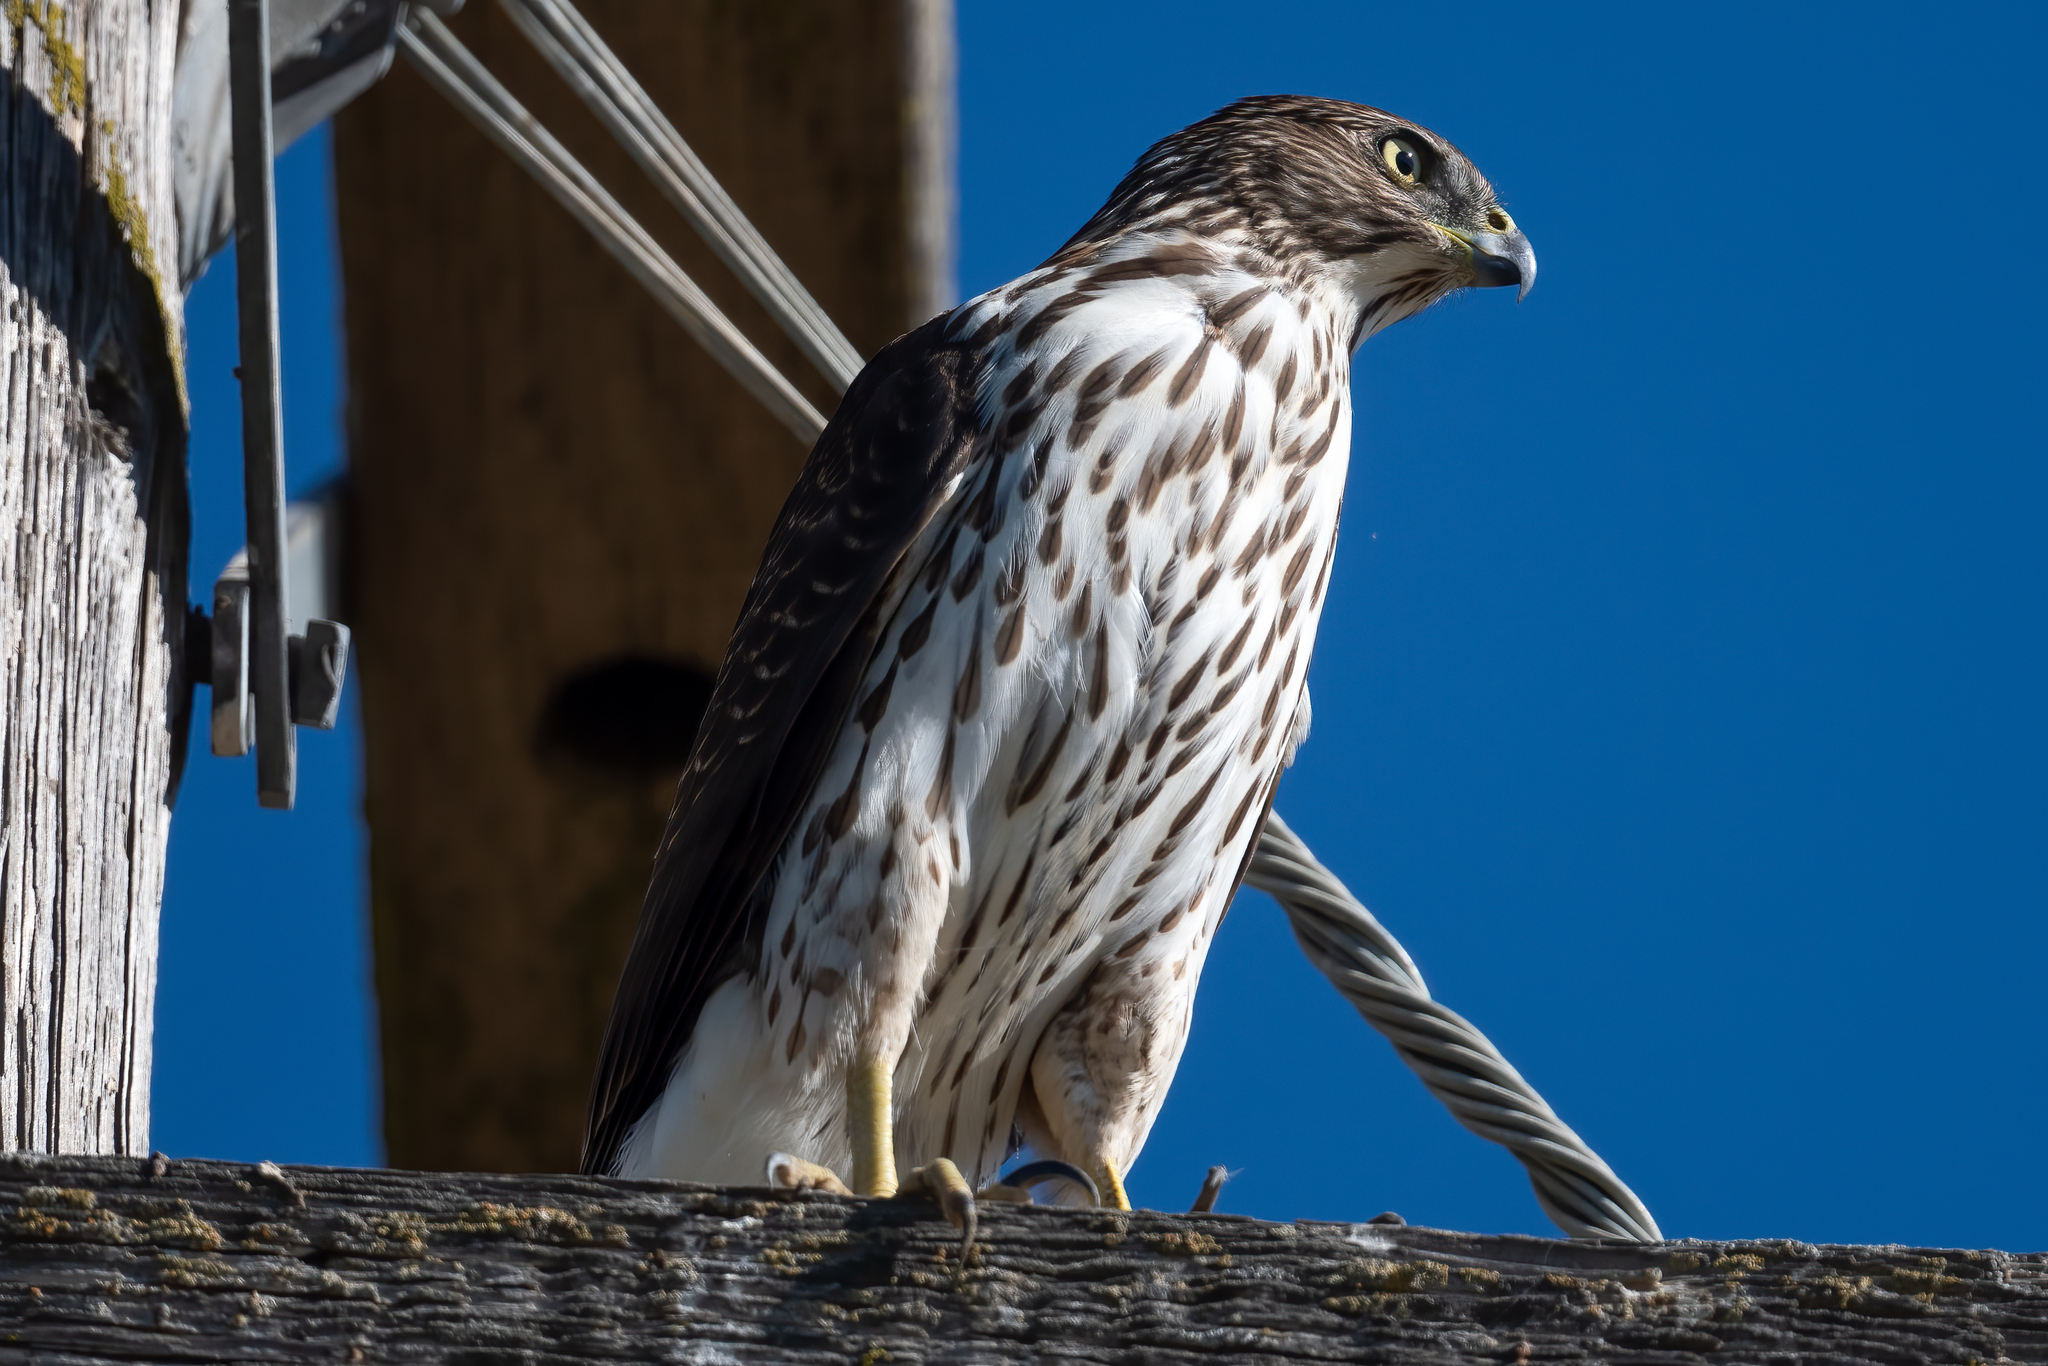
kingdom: Animalia
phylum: Chordata
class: Aves
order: Accipitriformes
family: Accipitridae
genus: Accipiter
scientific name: Accipiter cooperii
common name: Cooper's hawk
